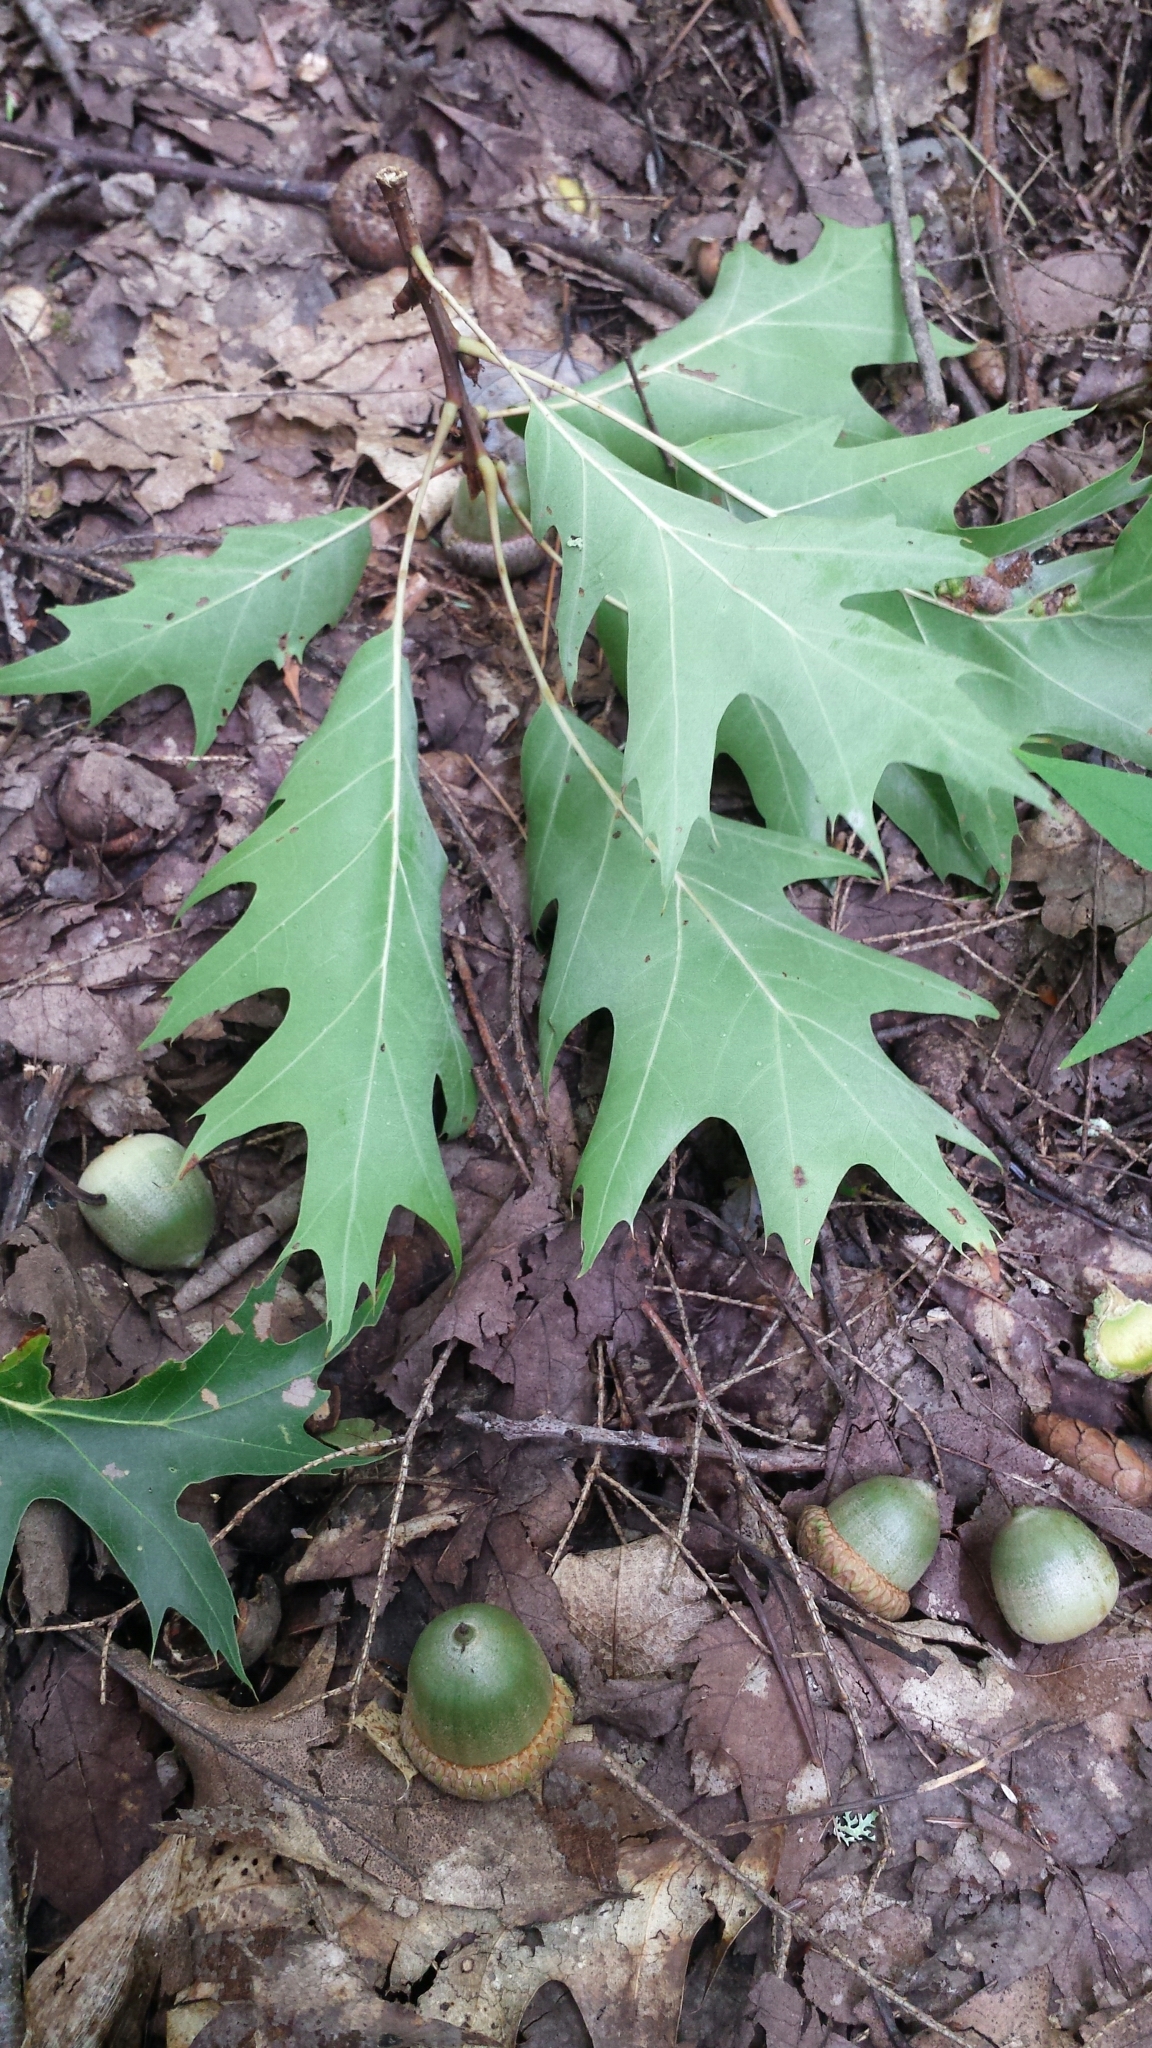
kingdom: Plantae
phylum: Tracheophyta
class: Magnoliopsida
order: Fagales
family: Fagaceae
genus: Quercus
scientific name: Quercus rubra
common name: Red oak
